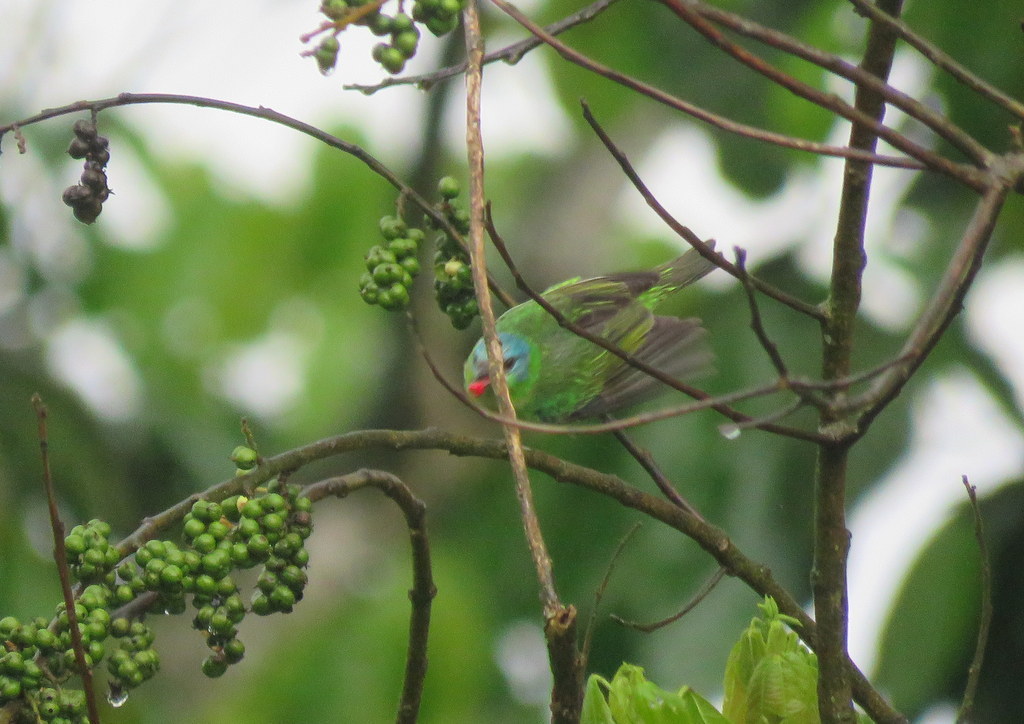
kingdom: Animalia
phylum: Chordata
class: Aves
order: Passeriformes
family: Thraupidae
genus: Dacnis
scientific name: Dacnis cayana
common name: Blue dacnis
